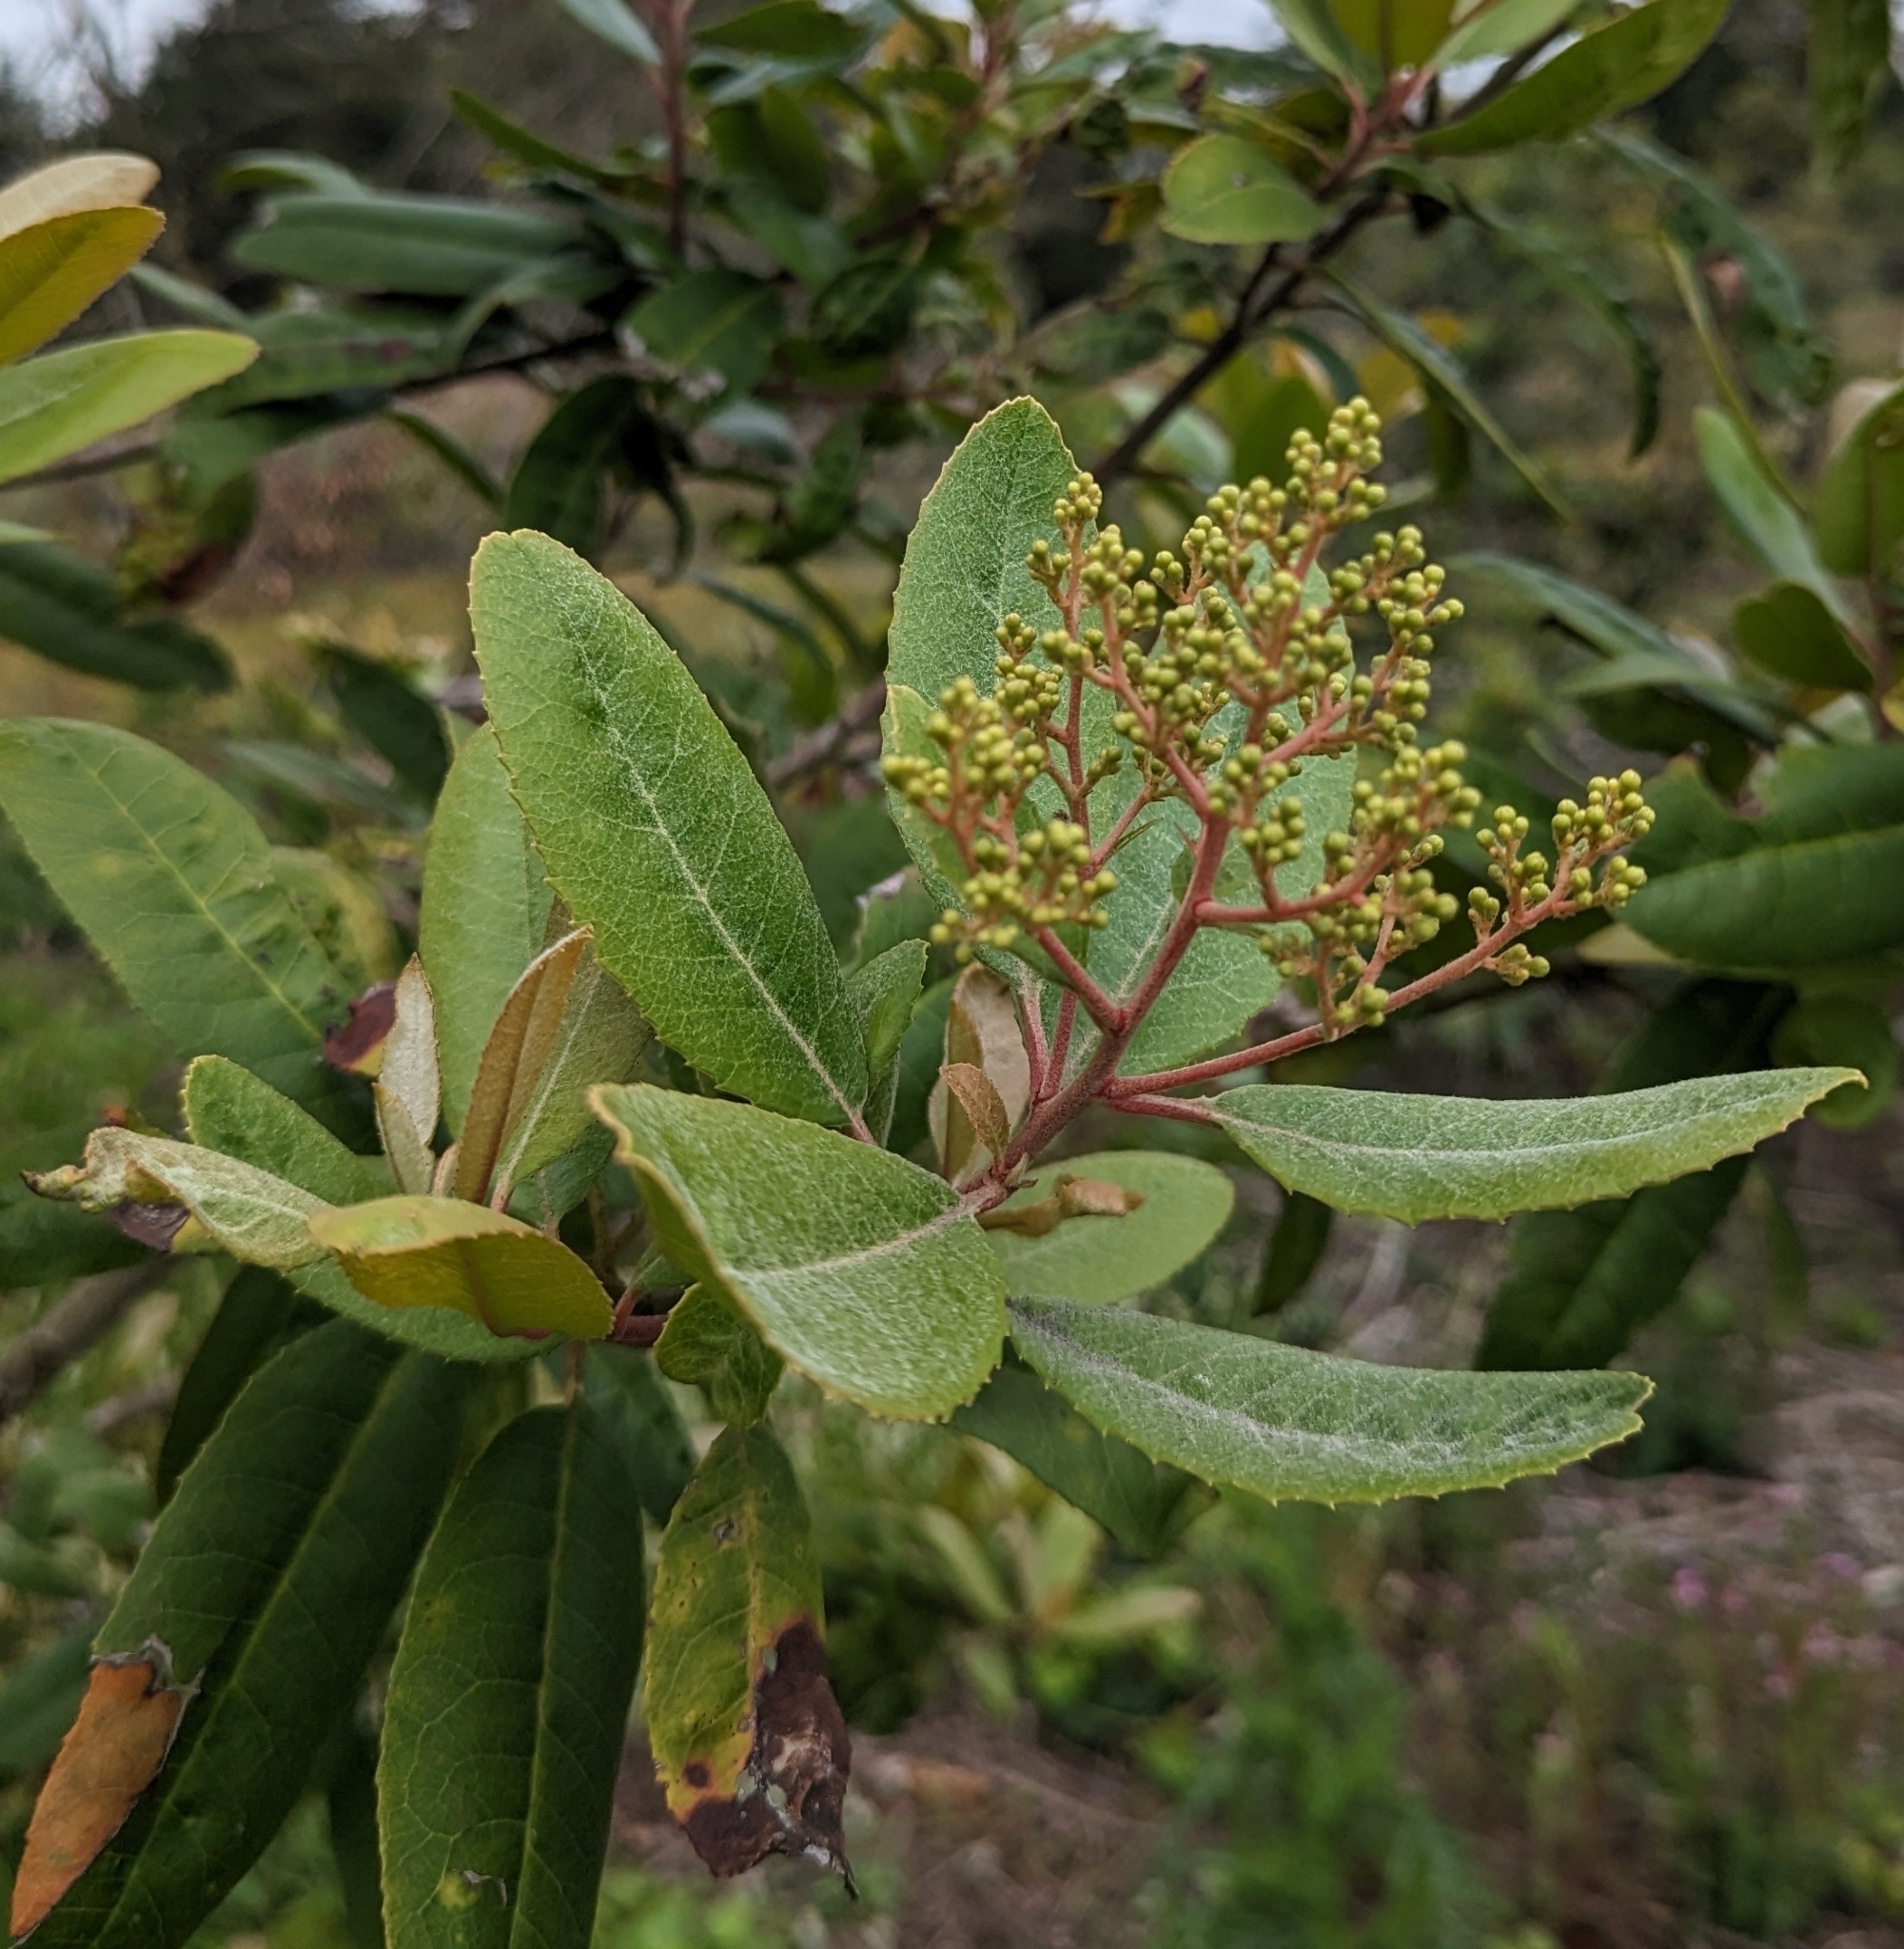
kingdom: Plantae
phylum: Tracheophyta
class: Magnoliopsida
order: Rosales
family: Rosaceae
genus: Heteromeles
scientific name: Heteromeles arbutifolia
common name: California-holly
